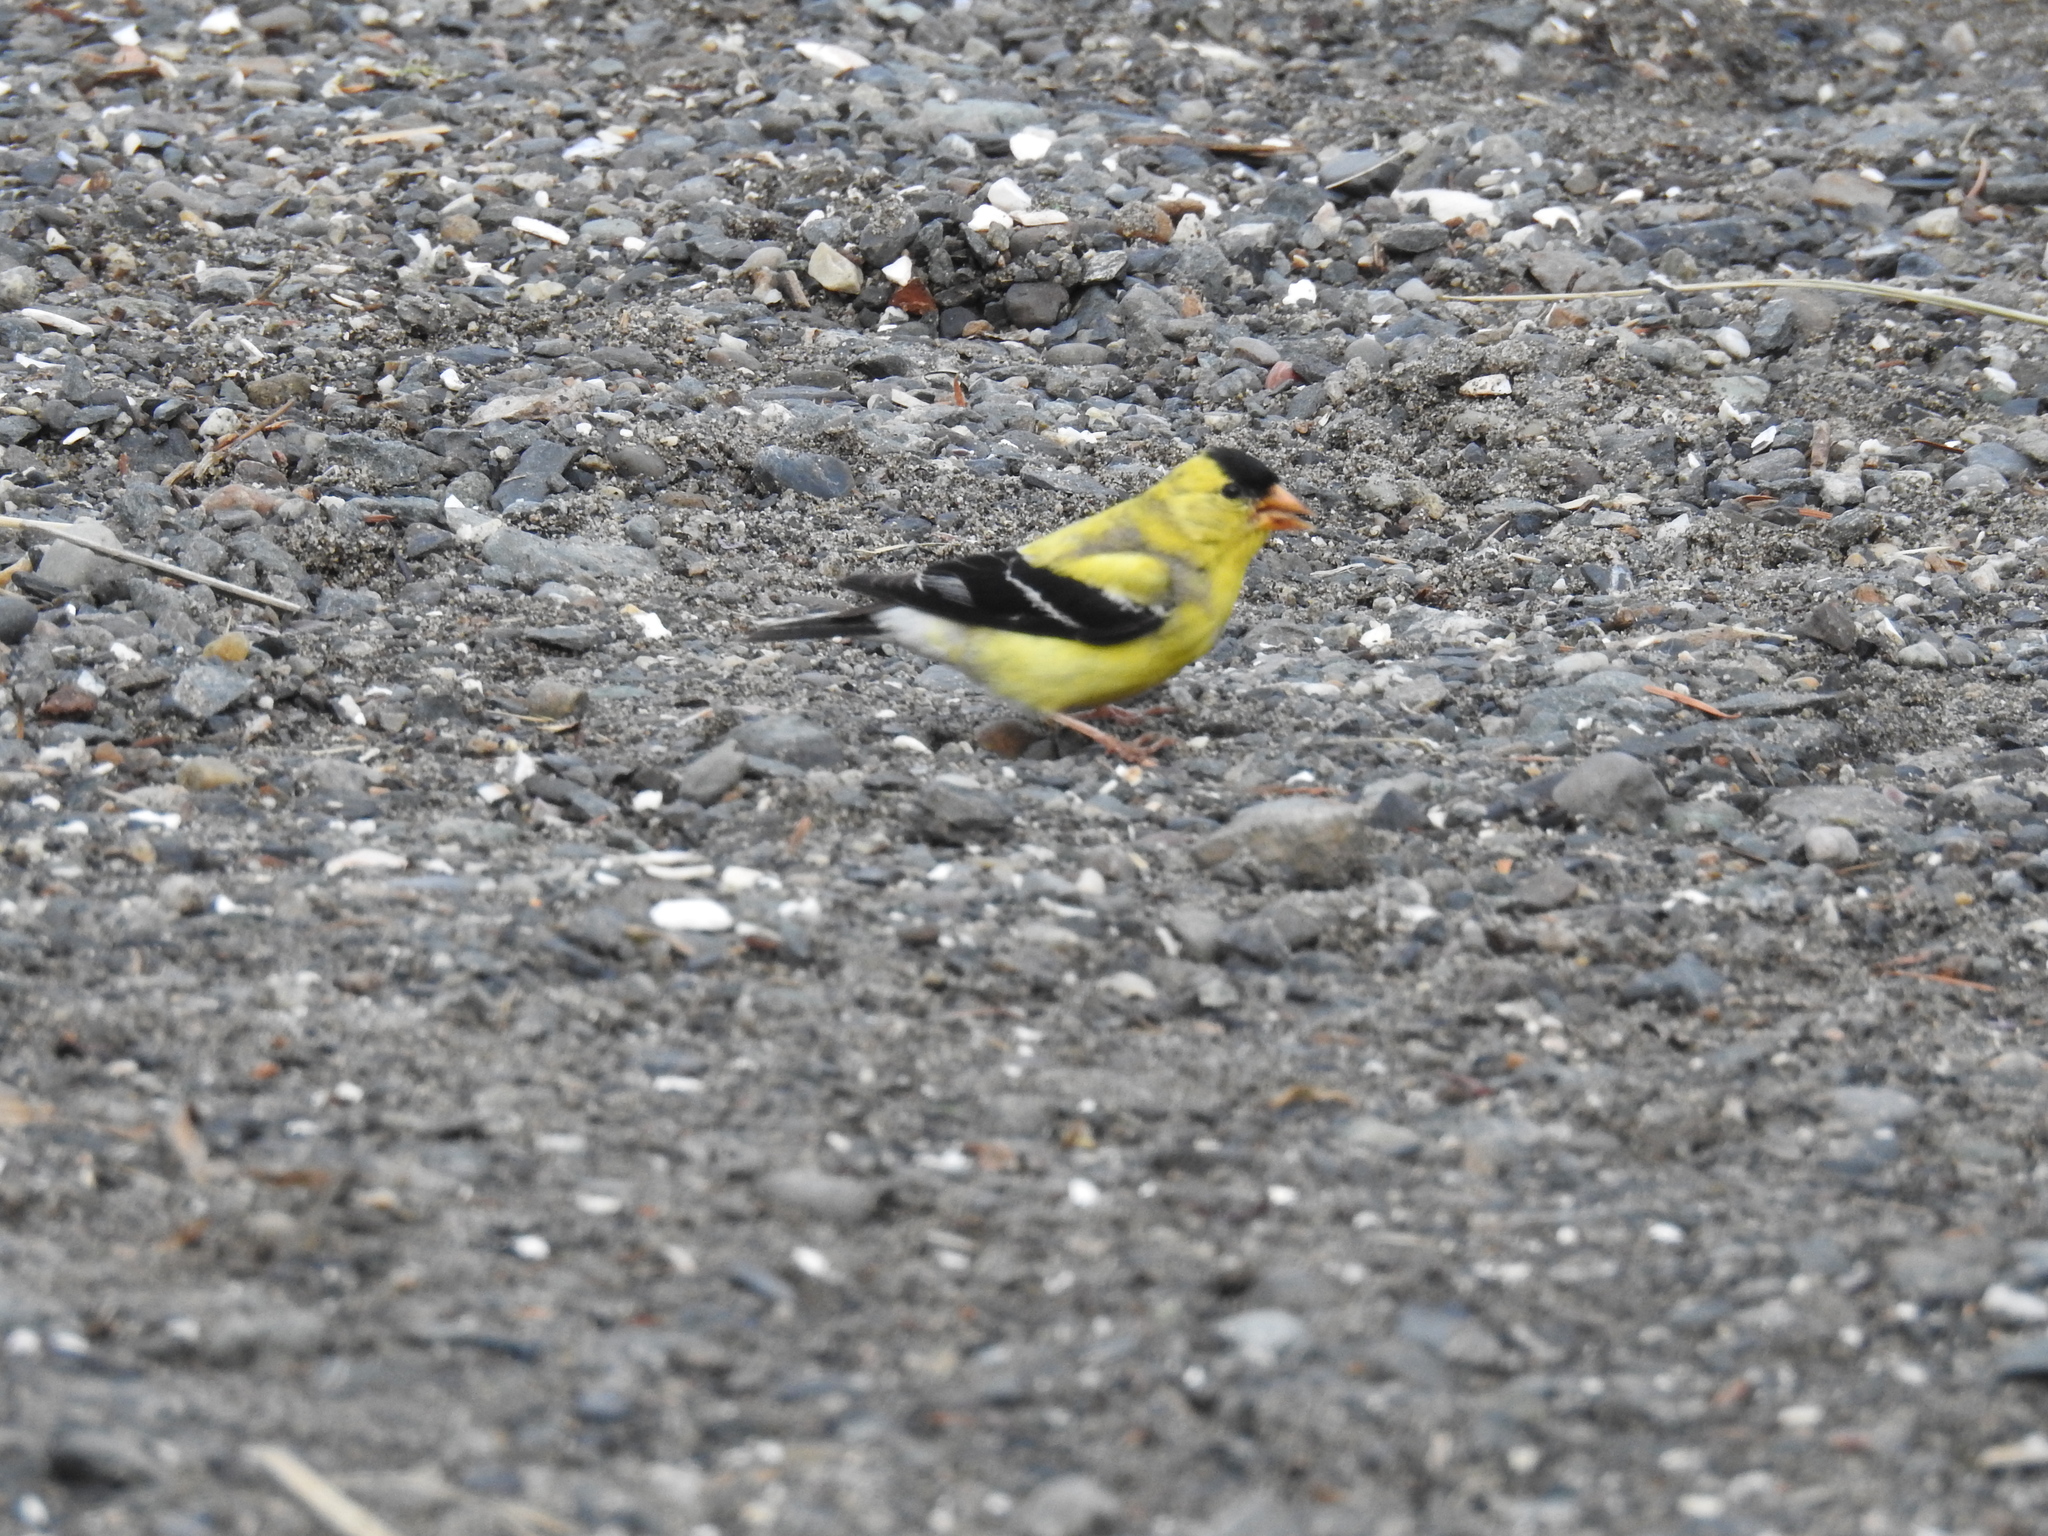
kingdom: Animalia
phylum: Chordata
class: Aves
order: Passeriformes
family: Fringillidae
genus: Spinus
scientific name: Spinus tristis
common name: American goldfinch
